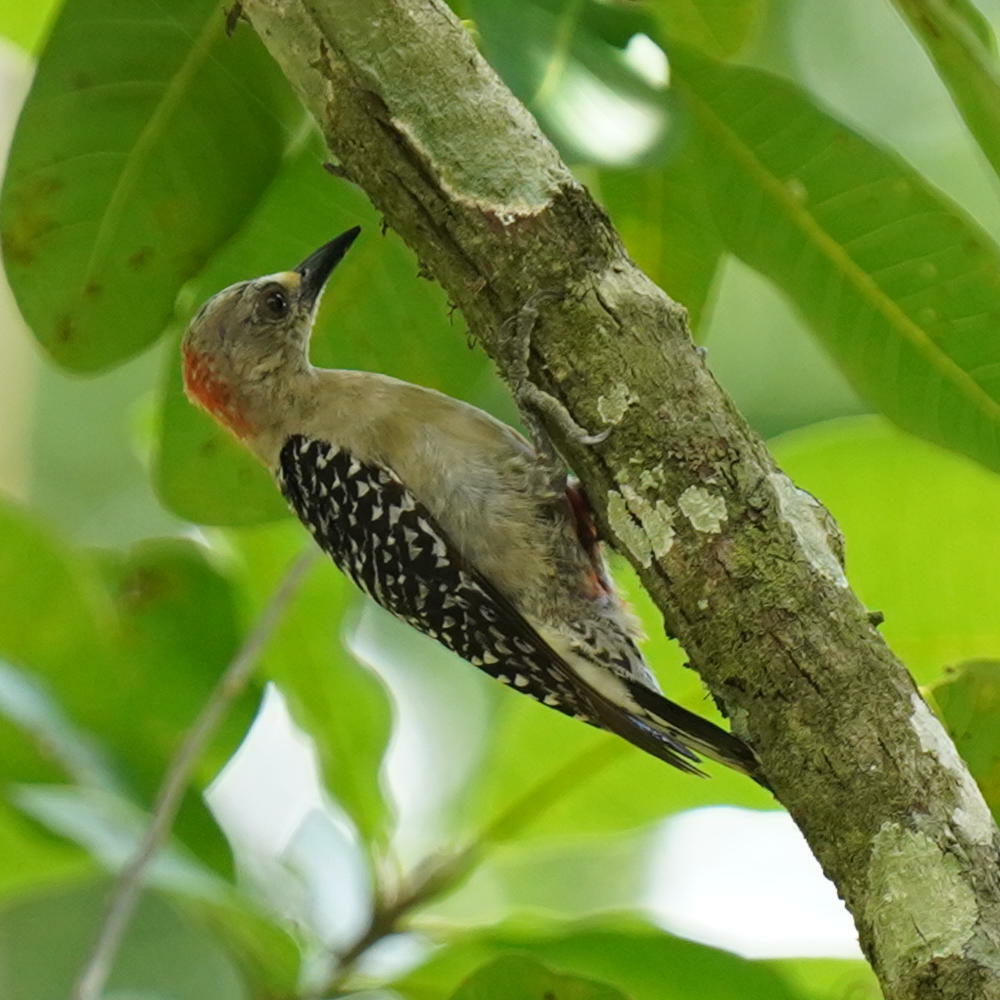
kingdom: Animalia
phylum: Chordata
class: Aves
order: Piciformes
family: Picidae
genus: Melanerpes
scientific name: Melanerpes rubricapillus
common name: Red-crowned woodpecker
